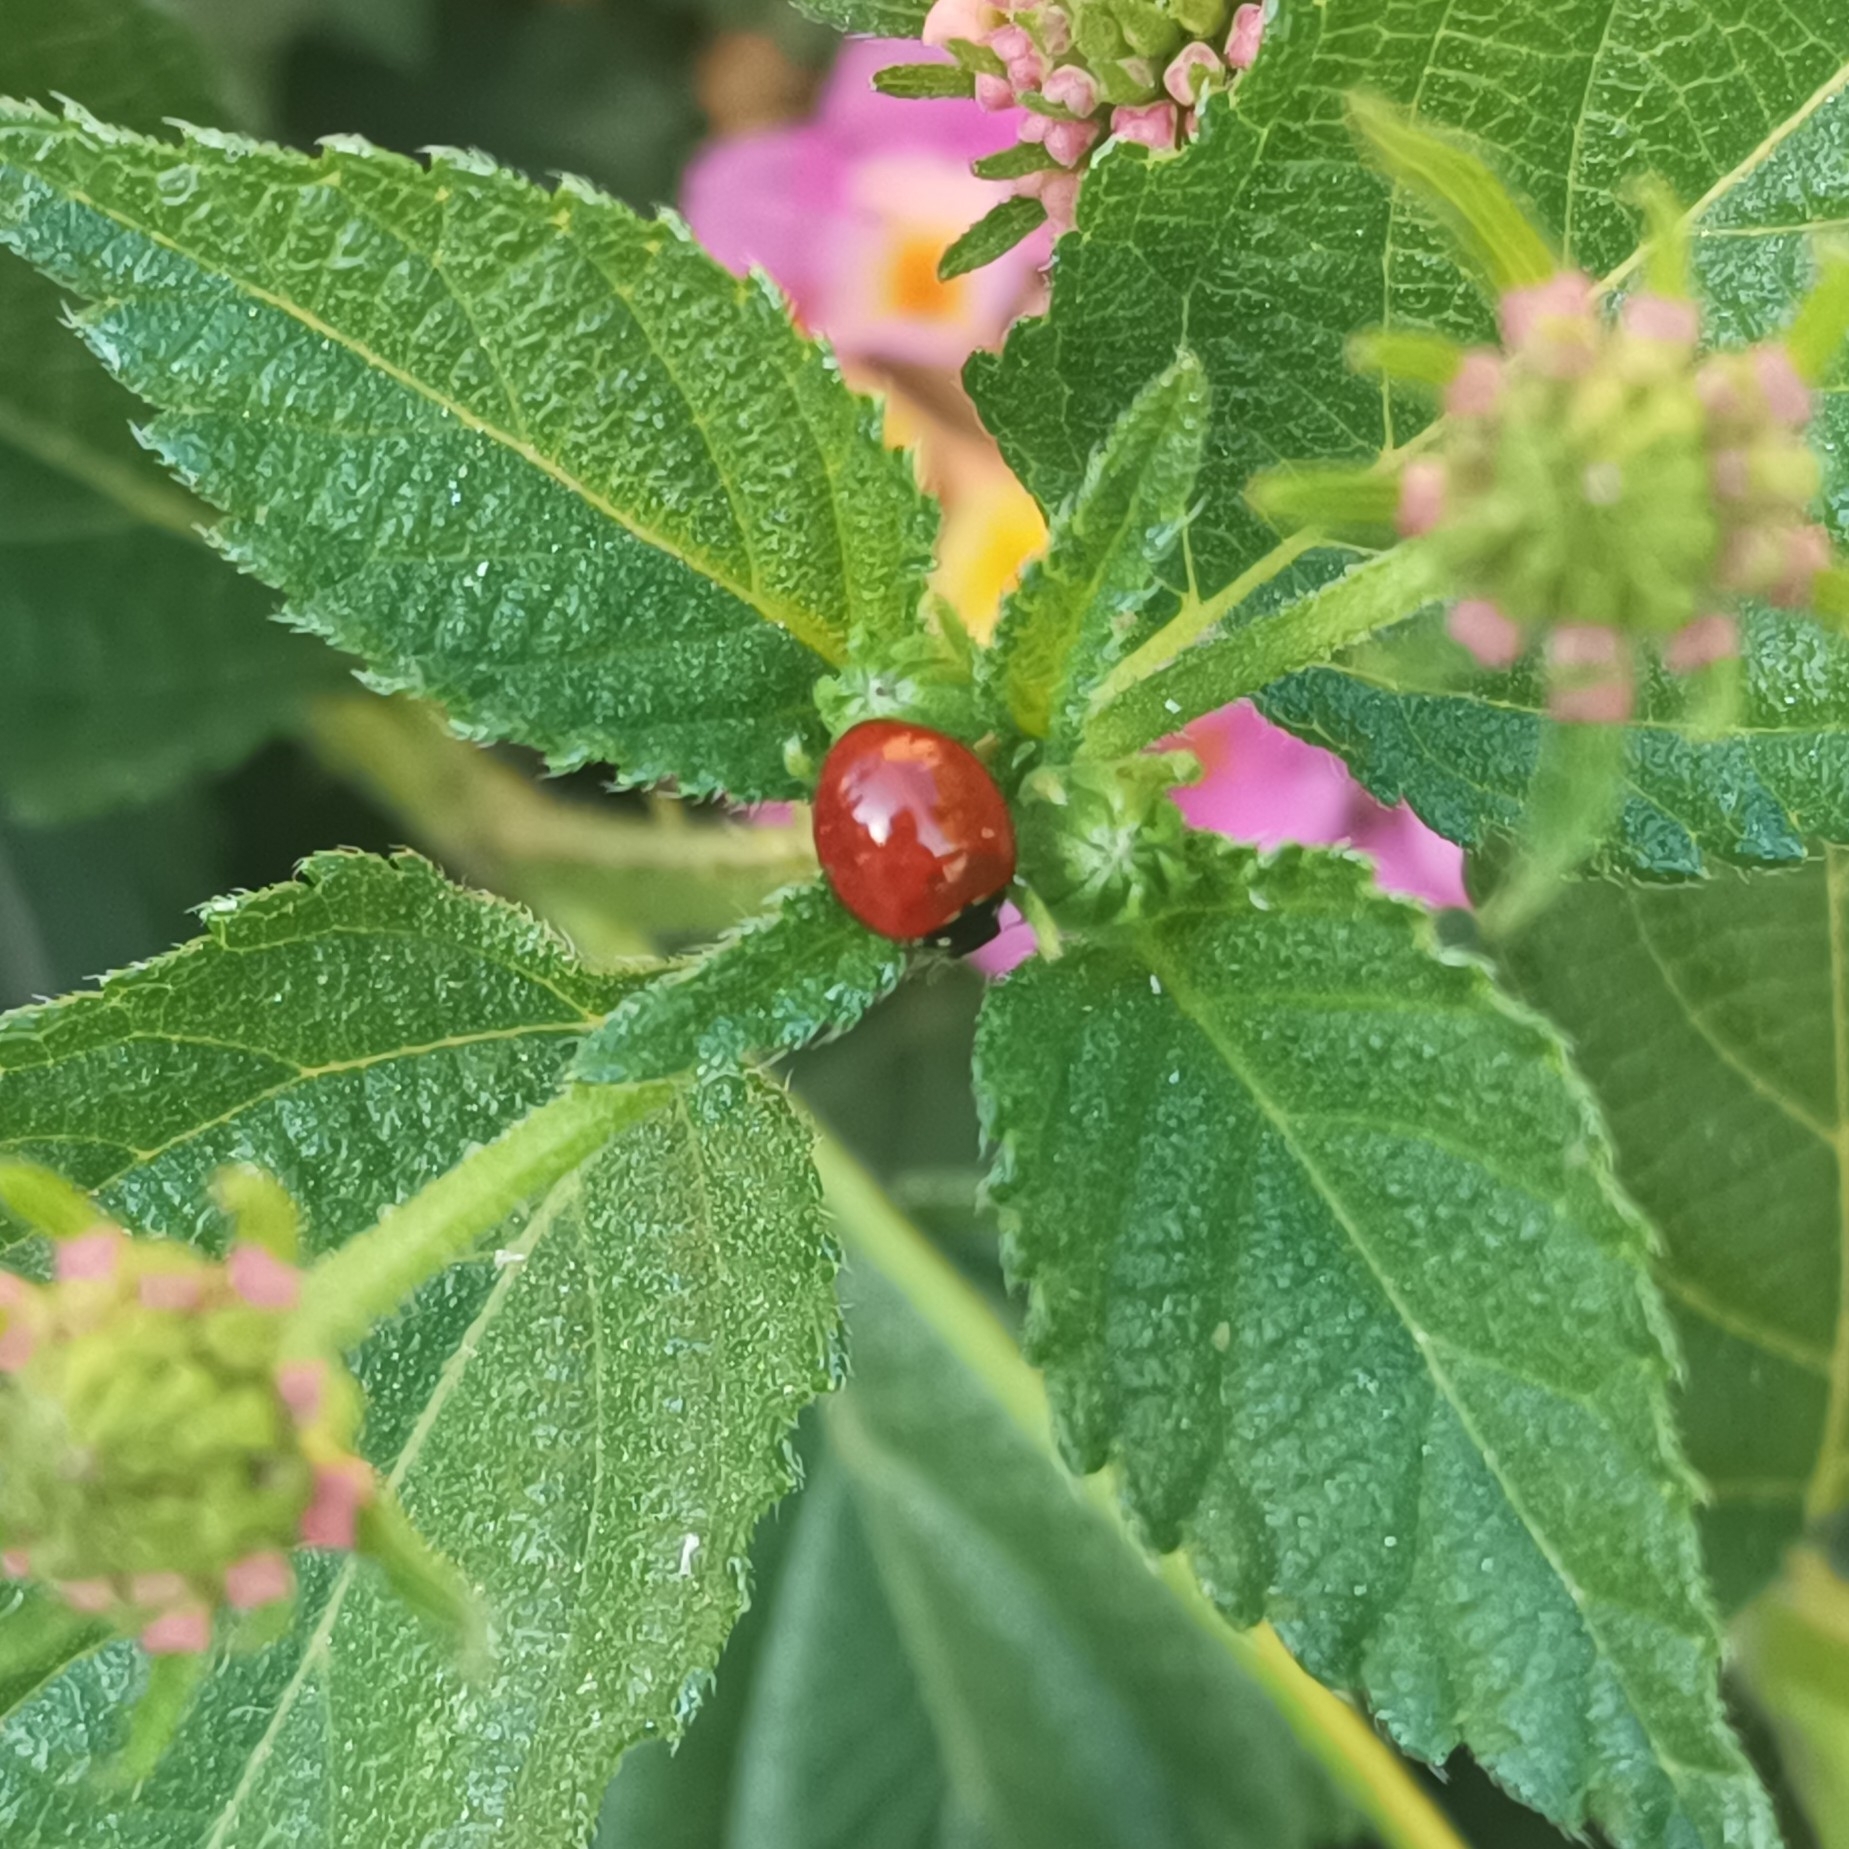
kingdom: Animalia
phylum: Arthropoda
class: Insecta
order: Coleoptera
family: Coccinellidae
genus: Cycloneda
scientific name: Cycloneda sanguinea
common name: Ladybird beetle
